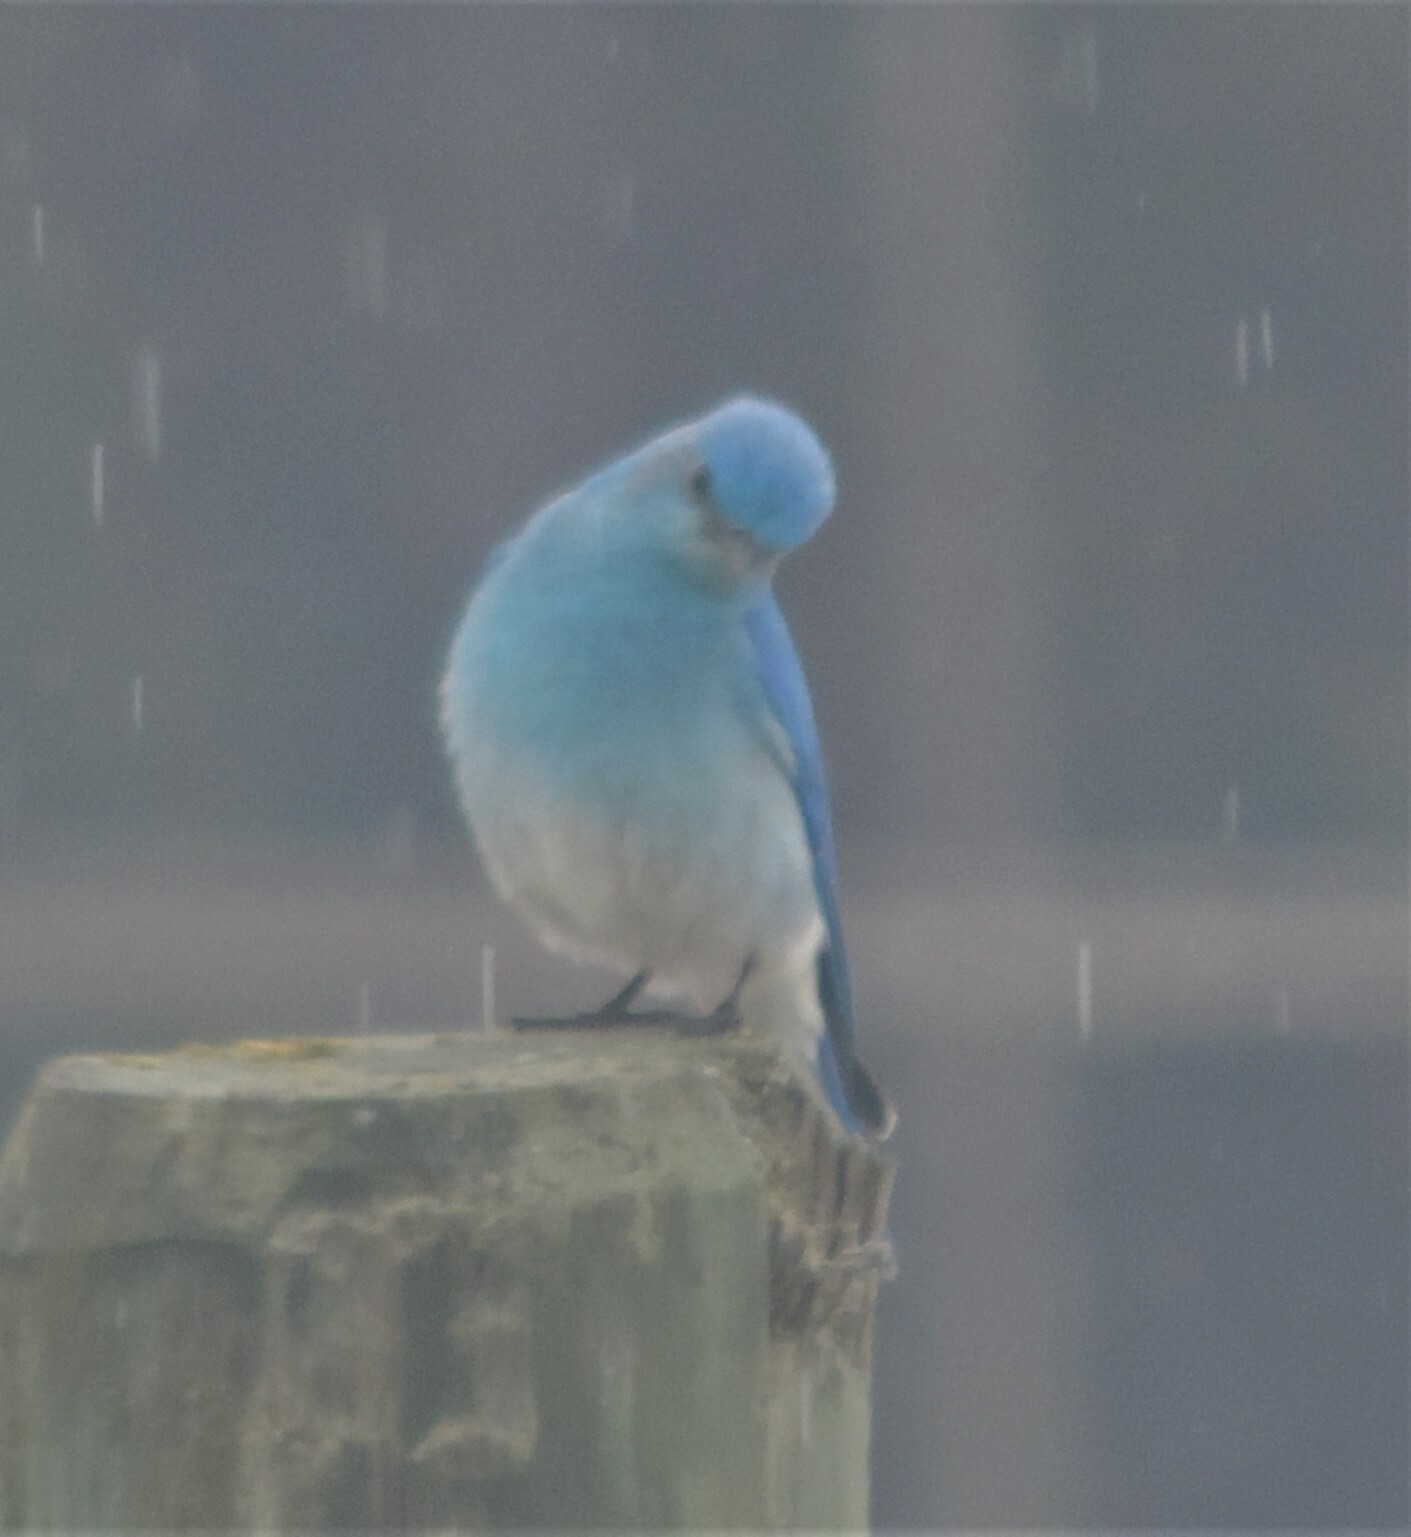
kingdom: Animalia
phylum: Chordata
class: Aves
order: Passeriformes
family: Turdidae
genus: Sialia
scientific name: Sialia currucoides
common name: Mountain bluebird
